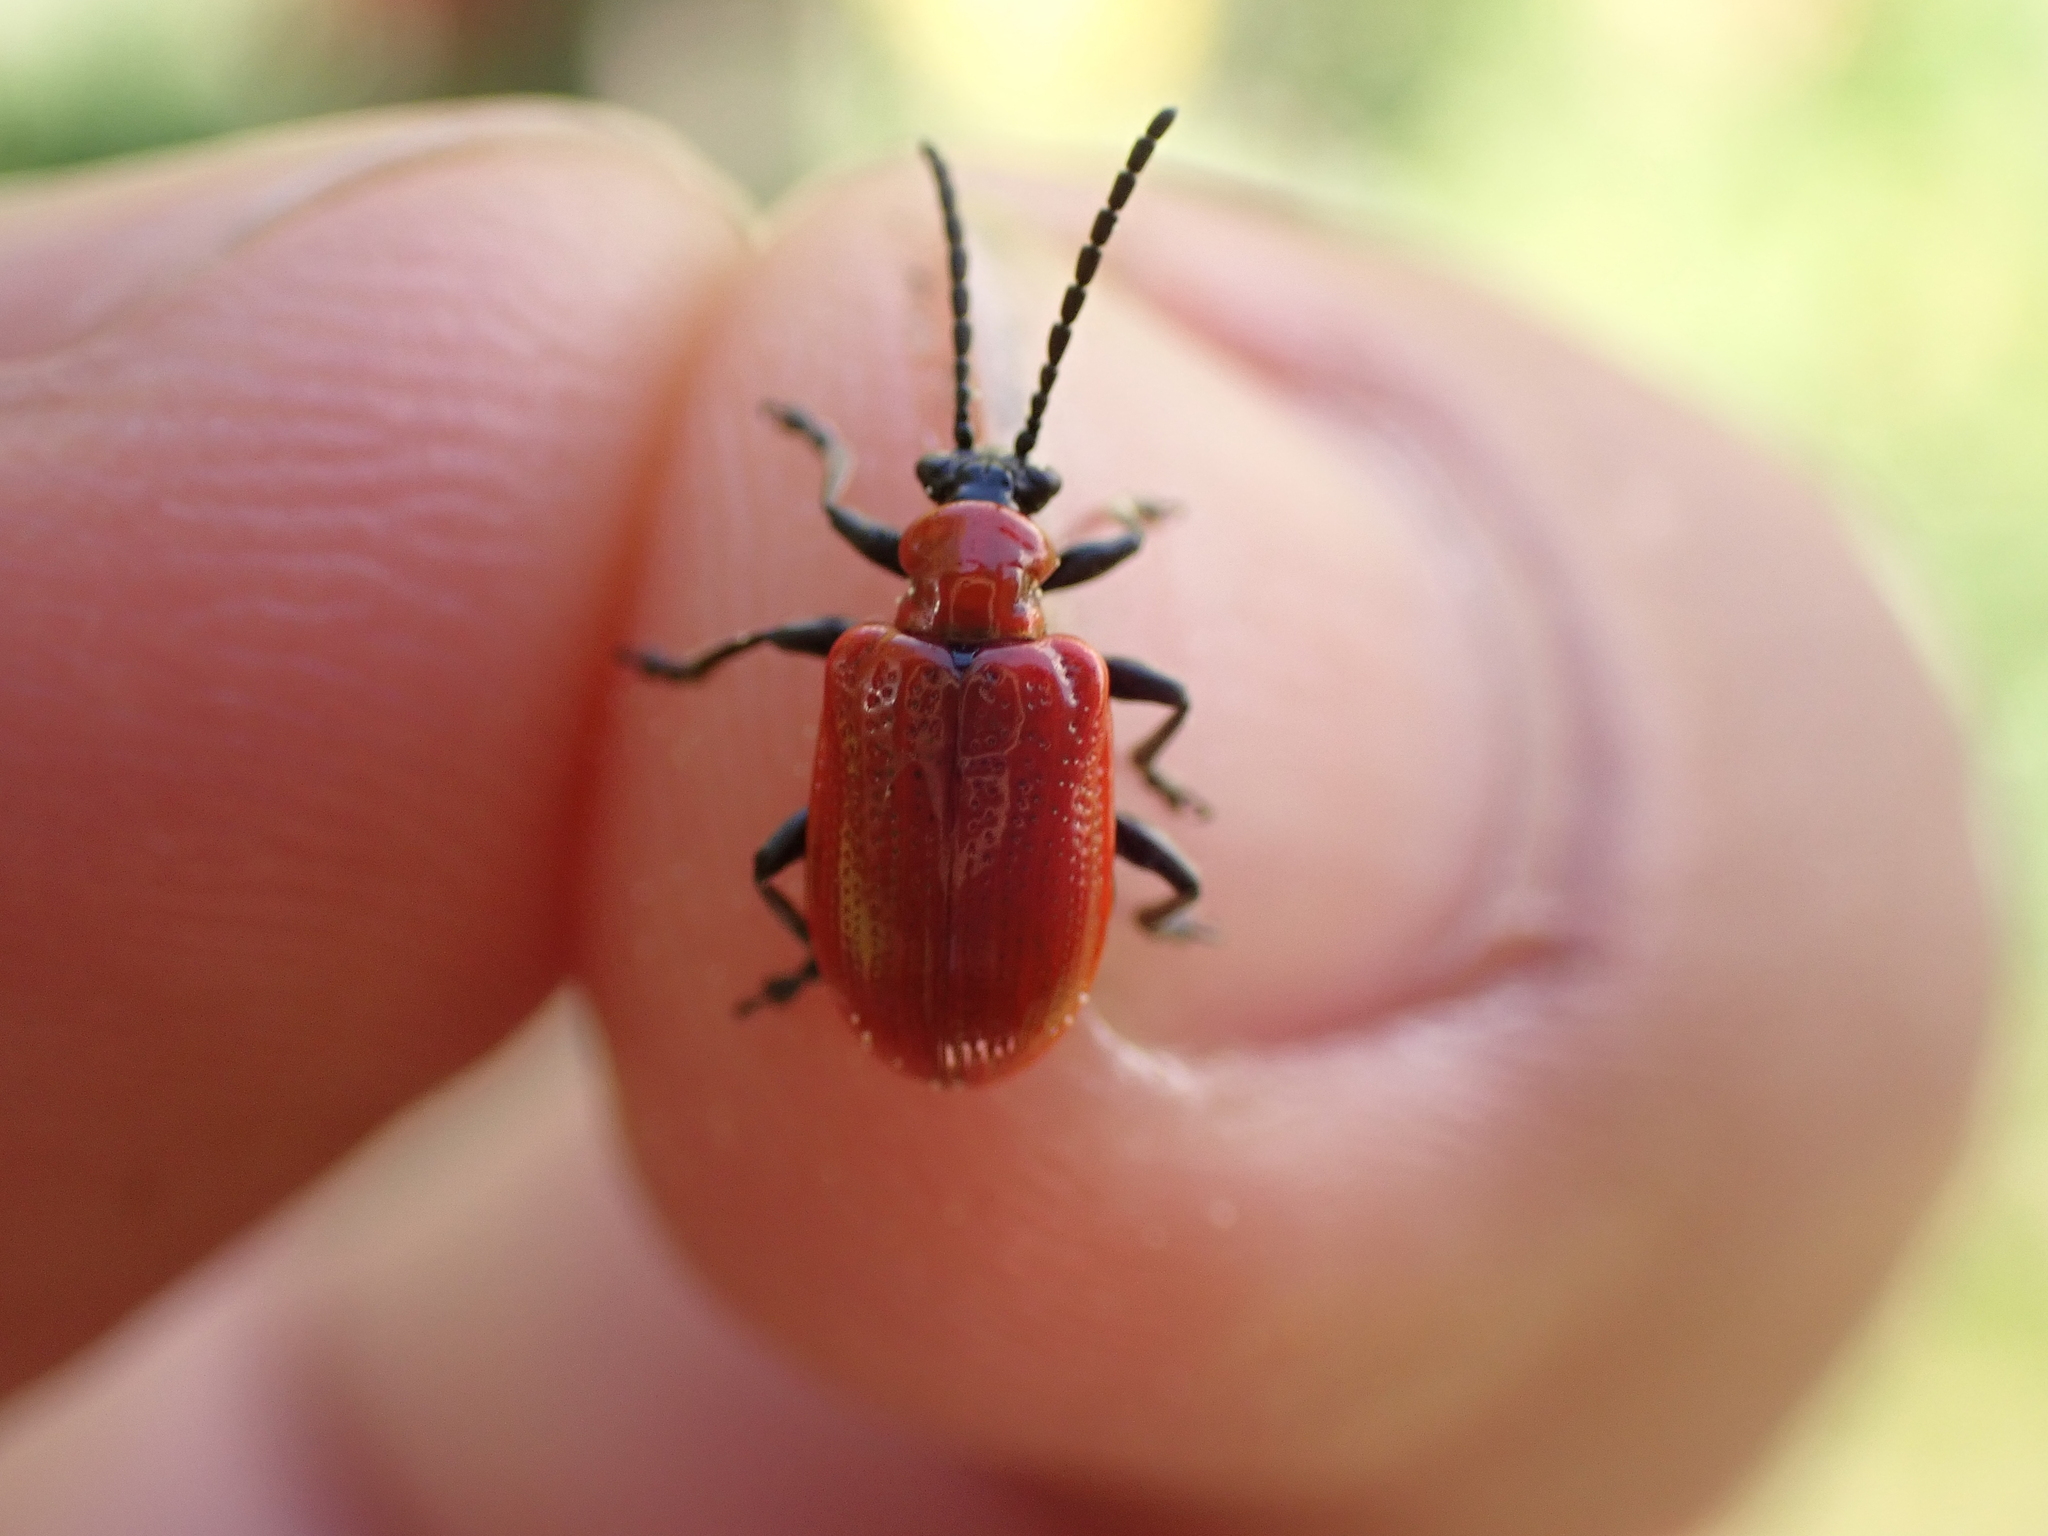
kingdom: Animalia
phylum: Arthropoda
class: Insecta
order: Coleoptera
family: Chrysomelidae
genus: Lilioceris
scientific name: Lilioceris lilii
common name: Lily beetle
